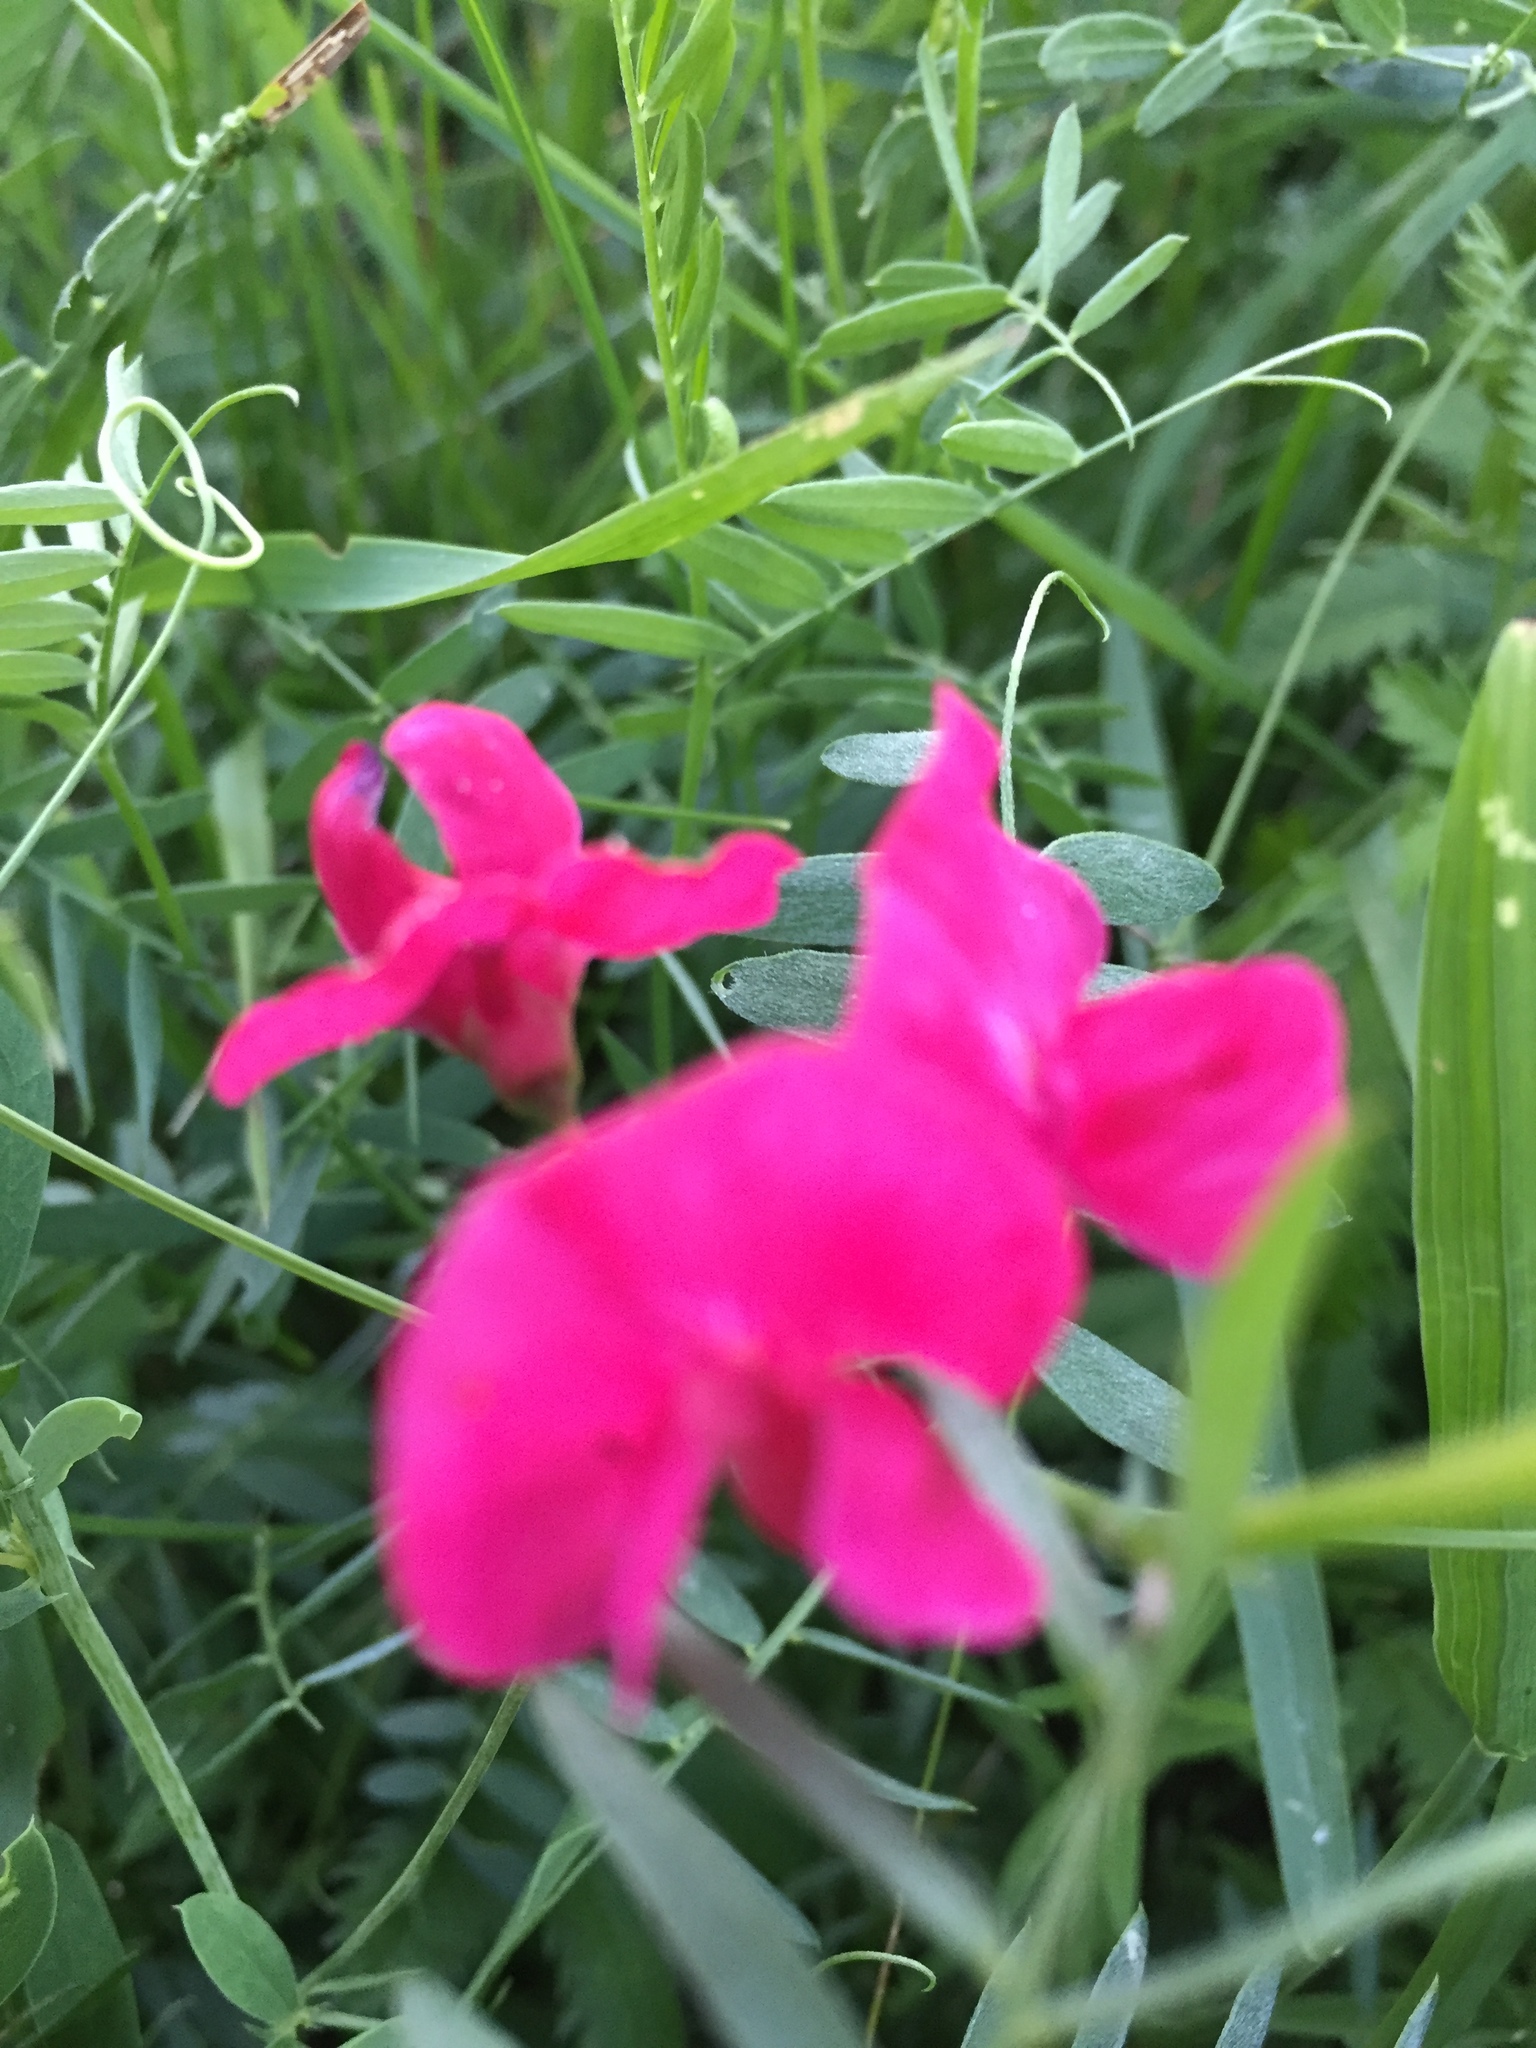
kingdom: Plantae
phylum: Tracheophyta
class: Magnoliopsida
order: Fabales
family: Fabaceae
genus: Lathyrus
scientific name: Lathyrus tuberosus
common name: Tuberous pea
